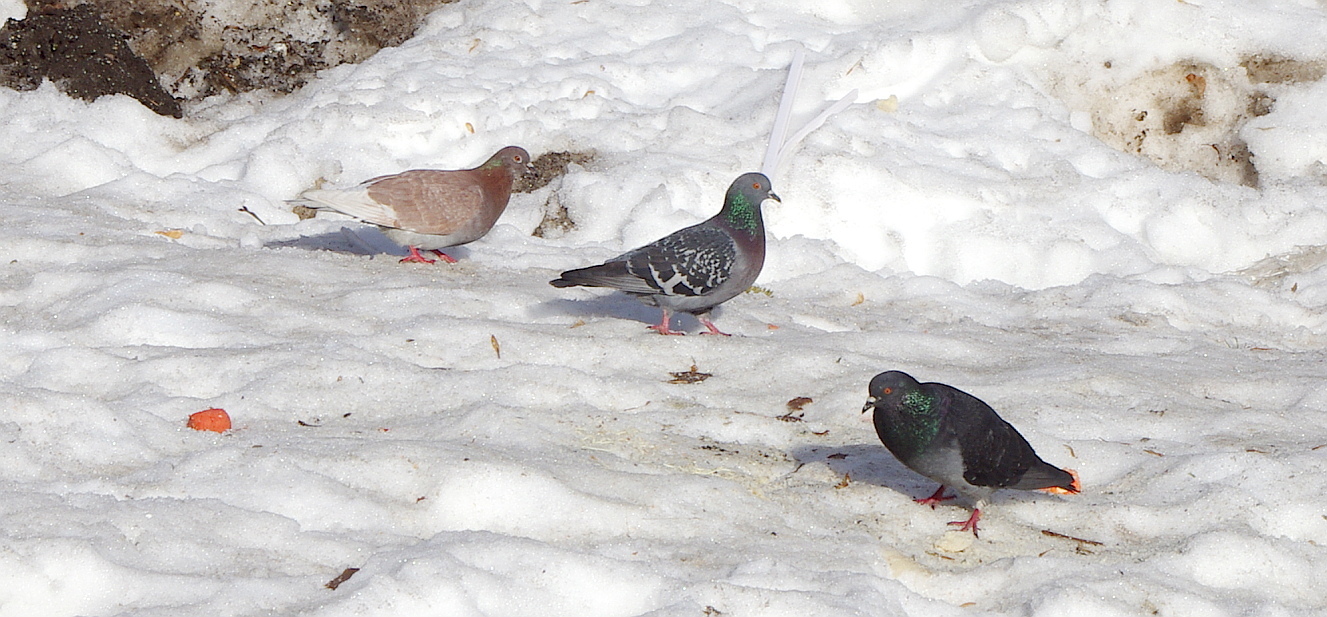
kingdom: Animalia
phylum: Chordata
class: Aves
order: Columbiformes
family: Columbidae
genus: Columba
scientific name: Columba livia
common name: Rock pigeon
